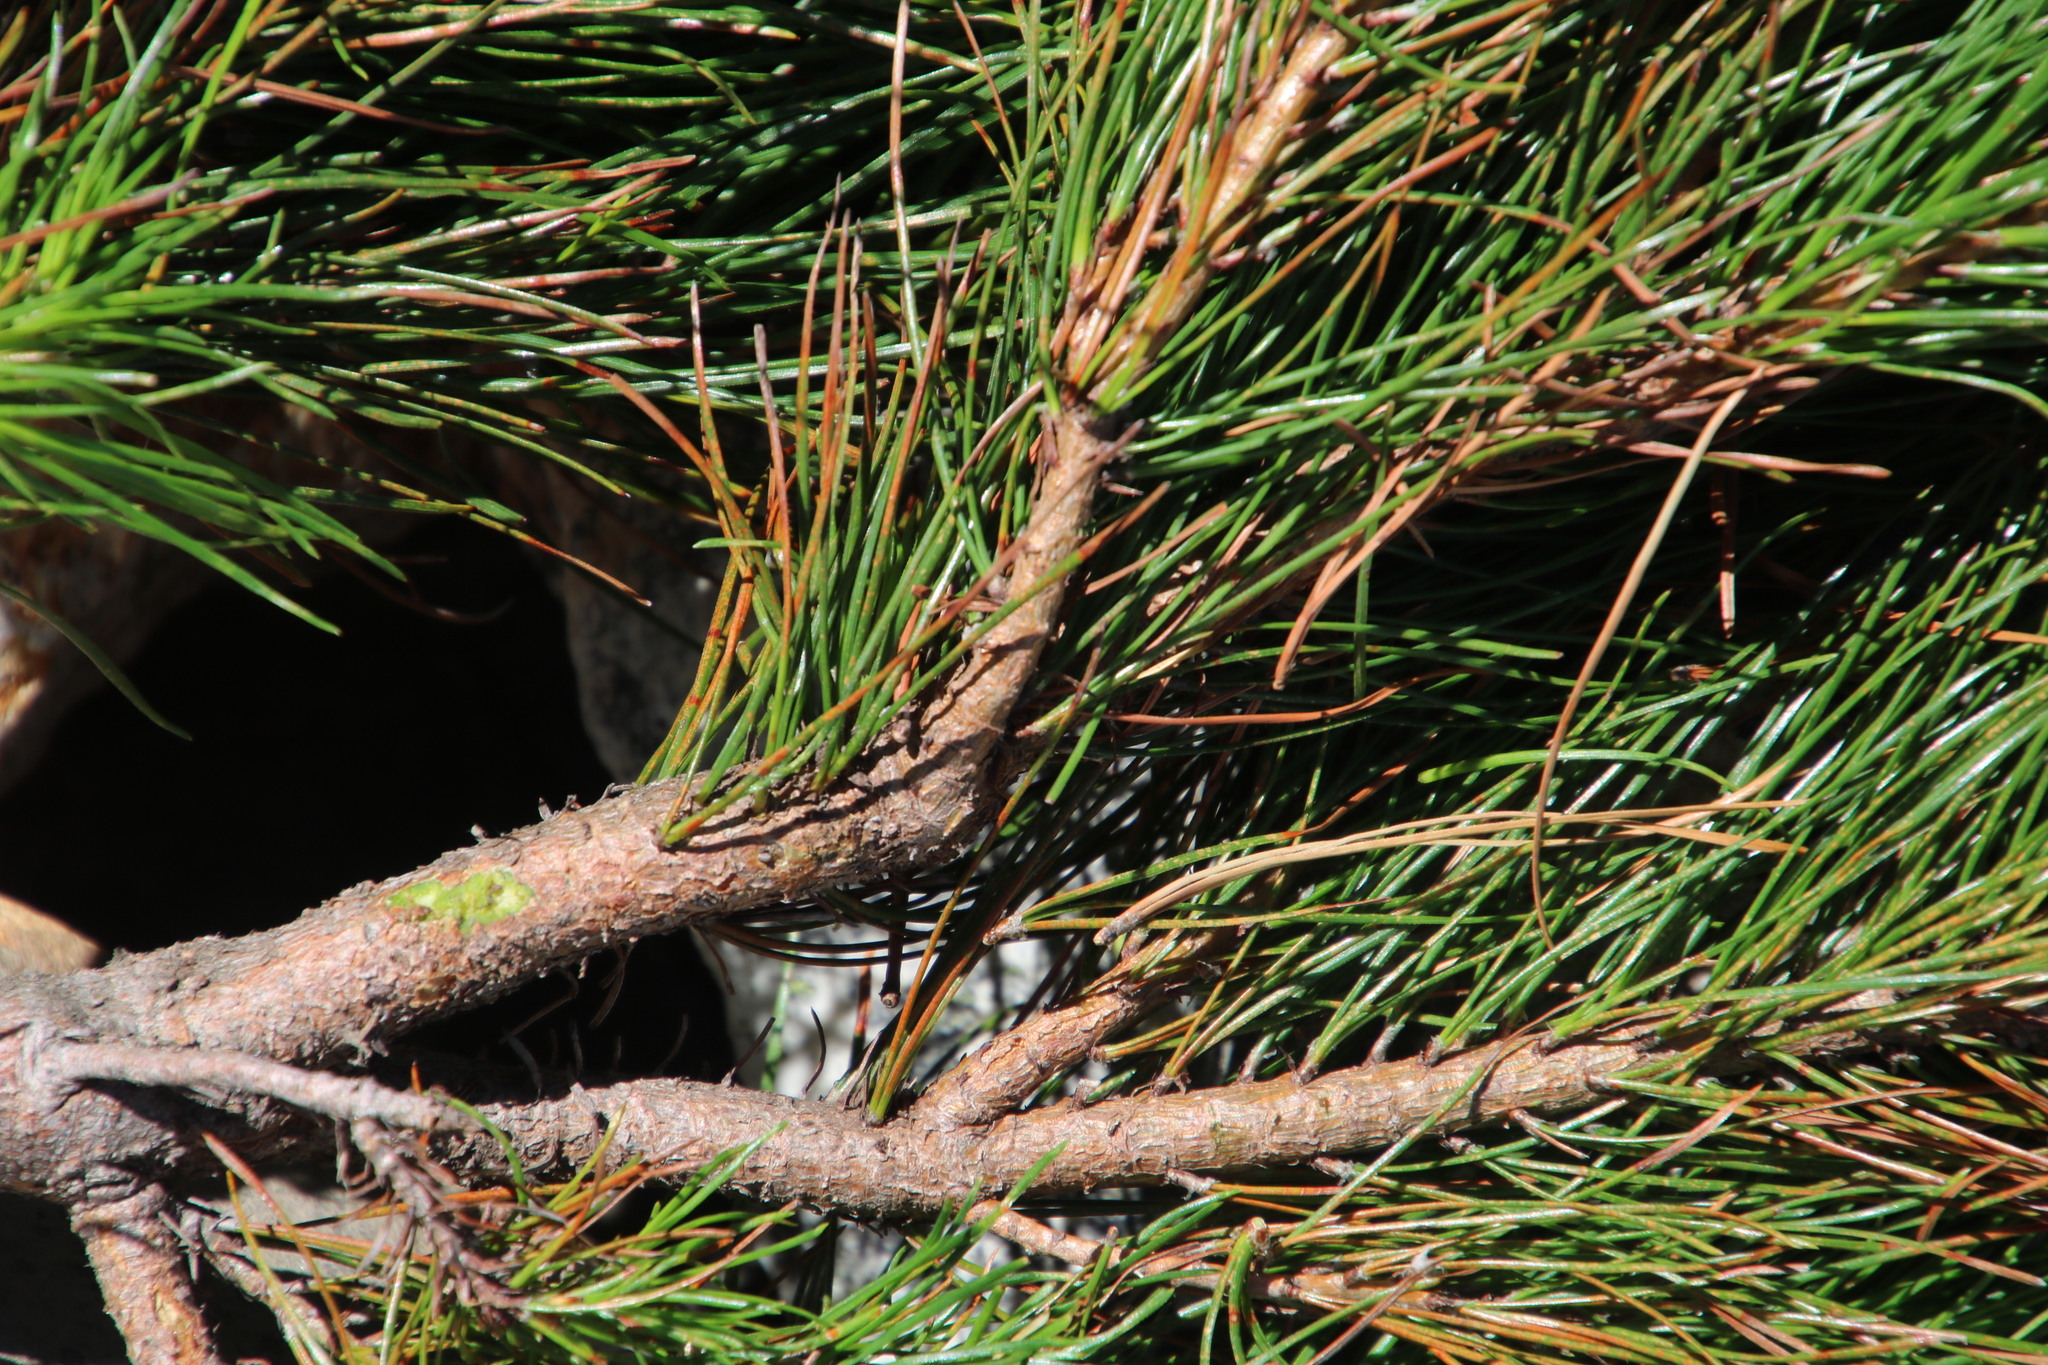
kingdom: Plantae
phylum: Tracheophyta
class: Pinopsida
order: Pinales
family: Pinaceae
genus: Pinus
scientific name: Pinus radiata
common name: Monterey pine
